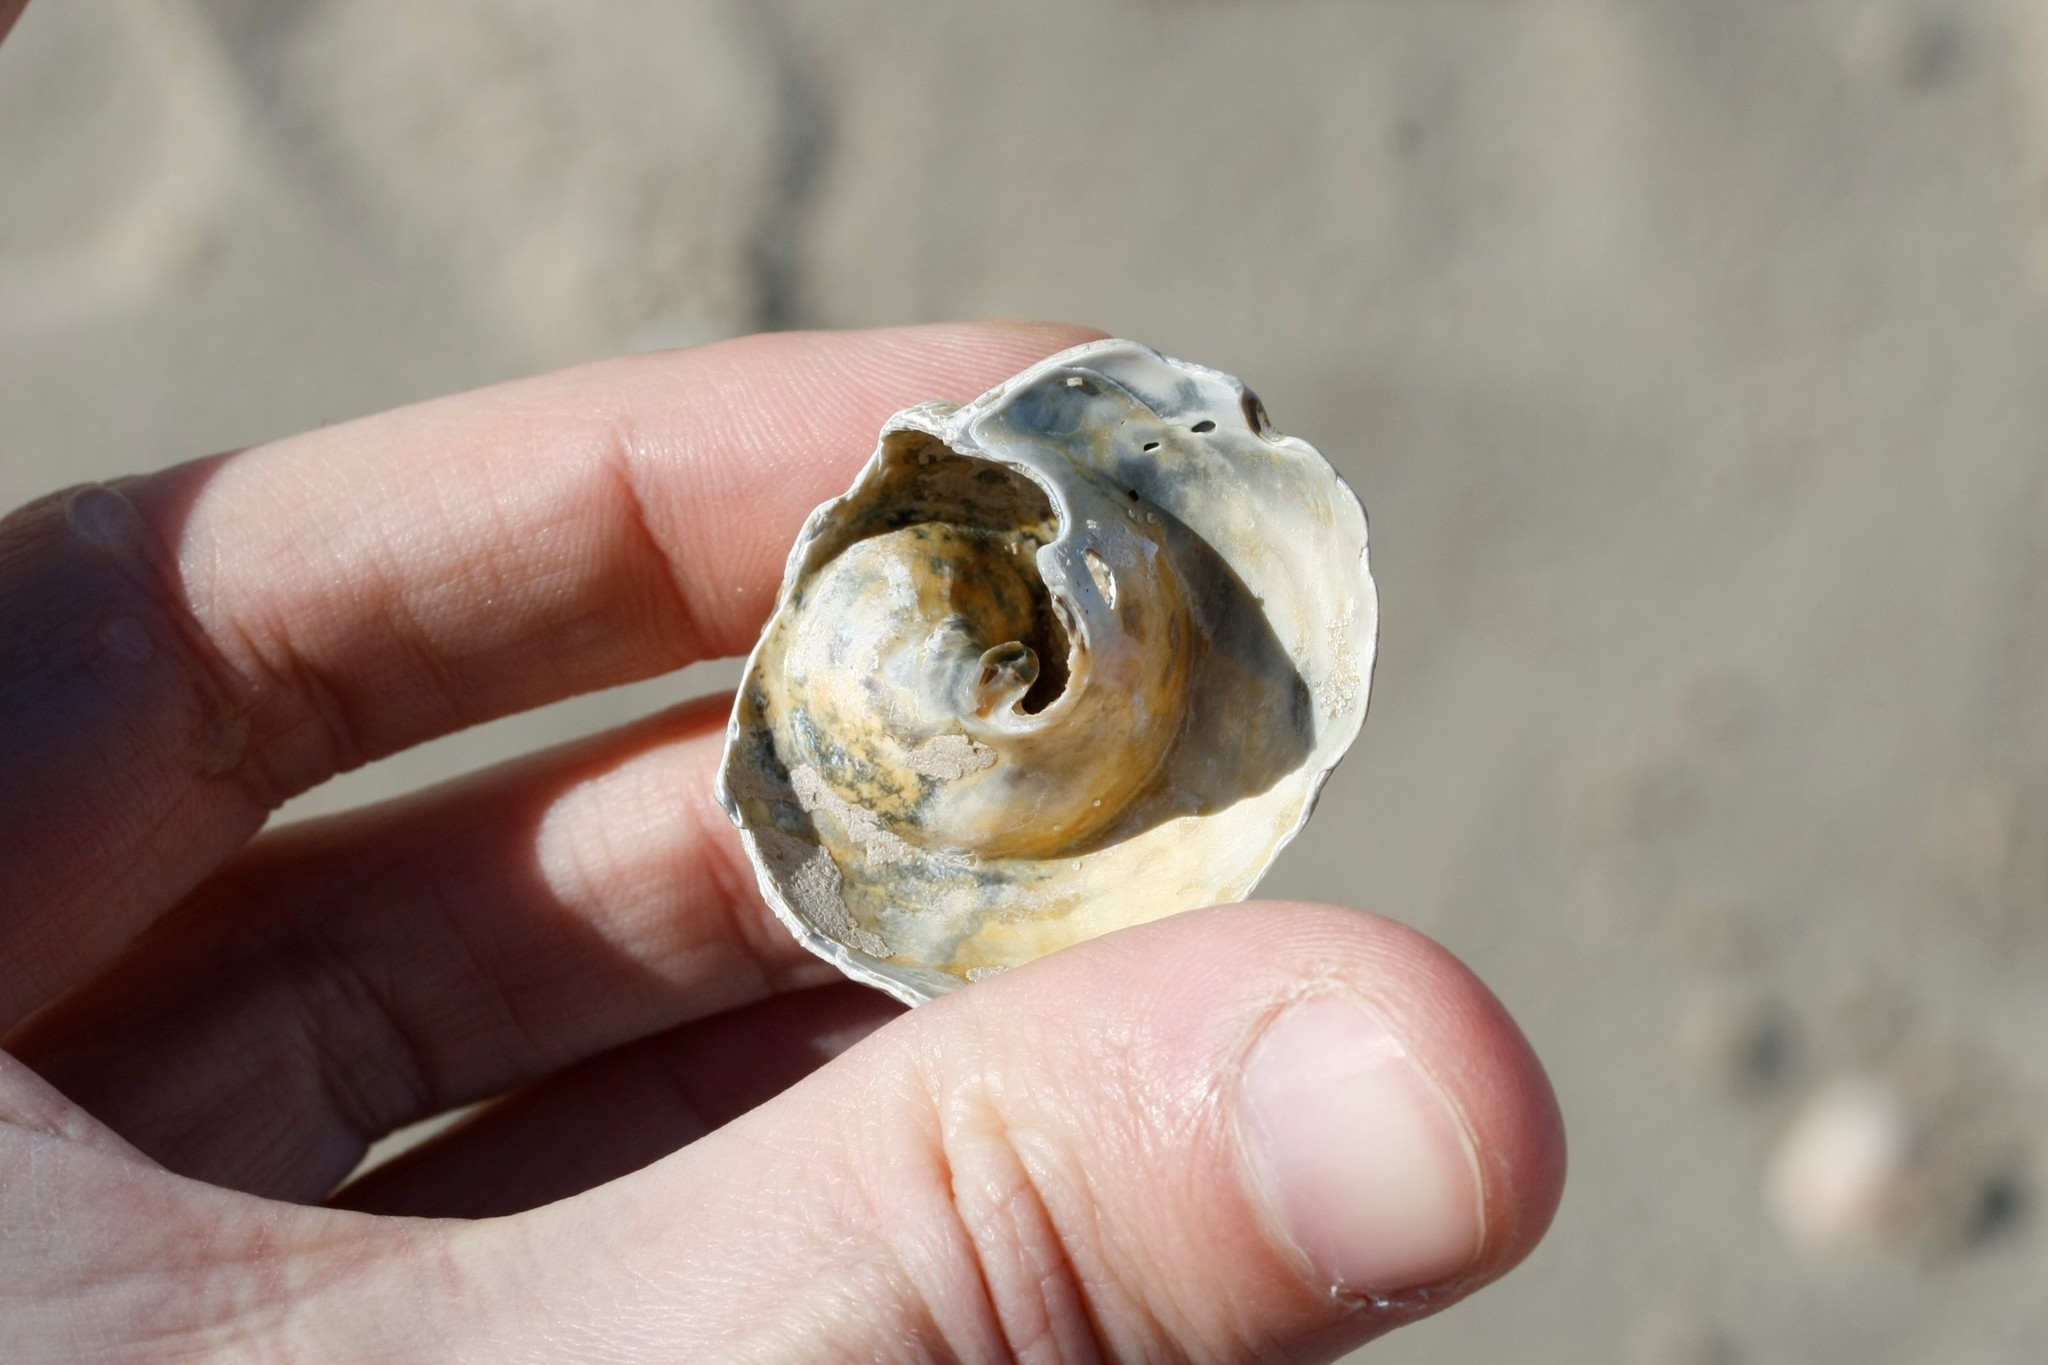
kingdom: Animalia
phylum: Mollusca
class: Gastropoda
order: Neogastropoda
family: Buccinidae
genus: Buccinum
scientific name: Buccinum undatum
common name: Common whelk
